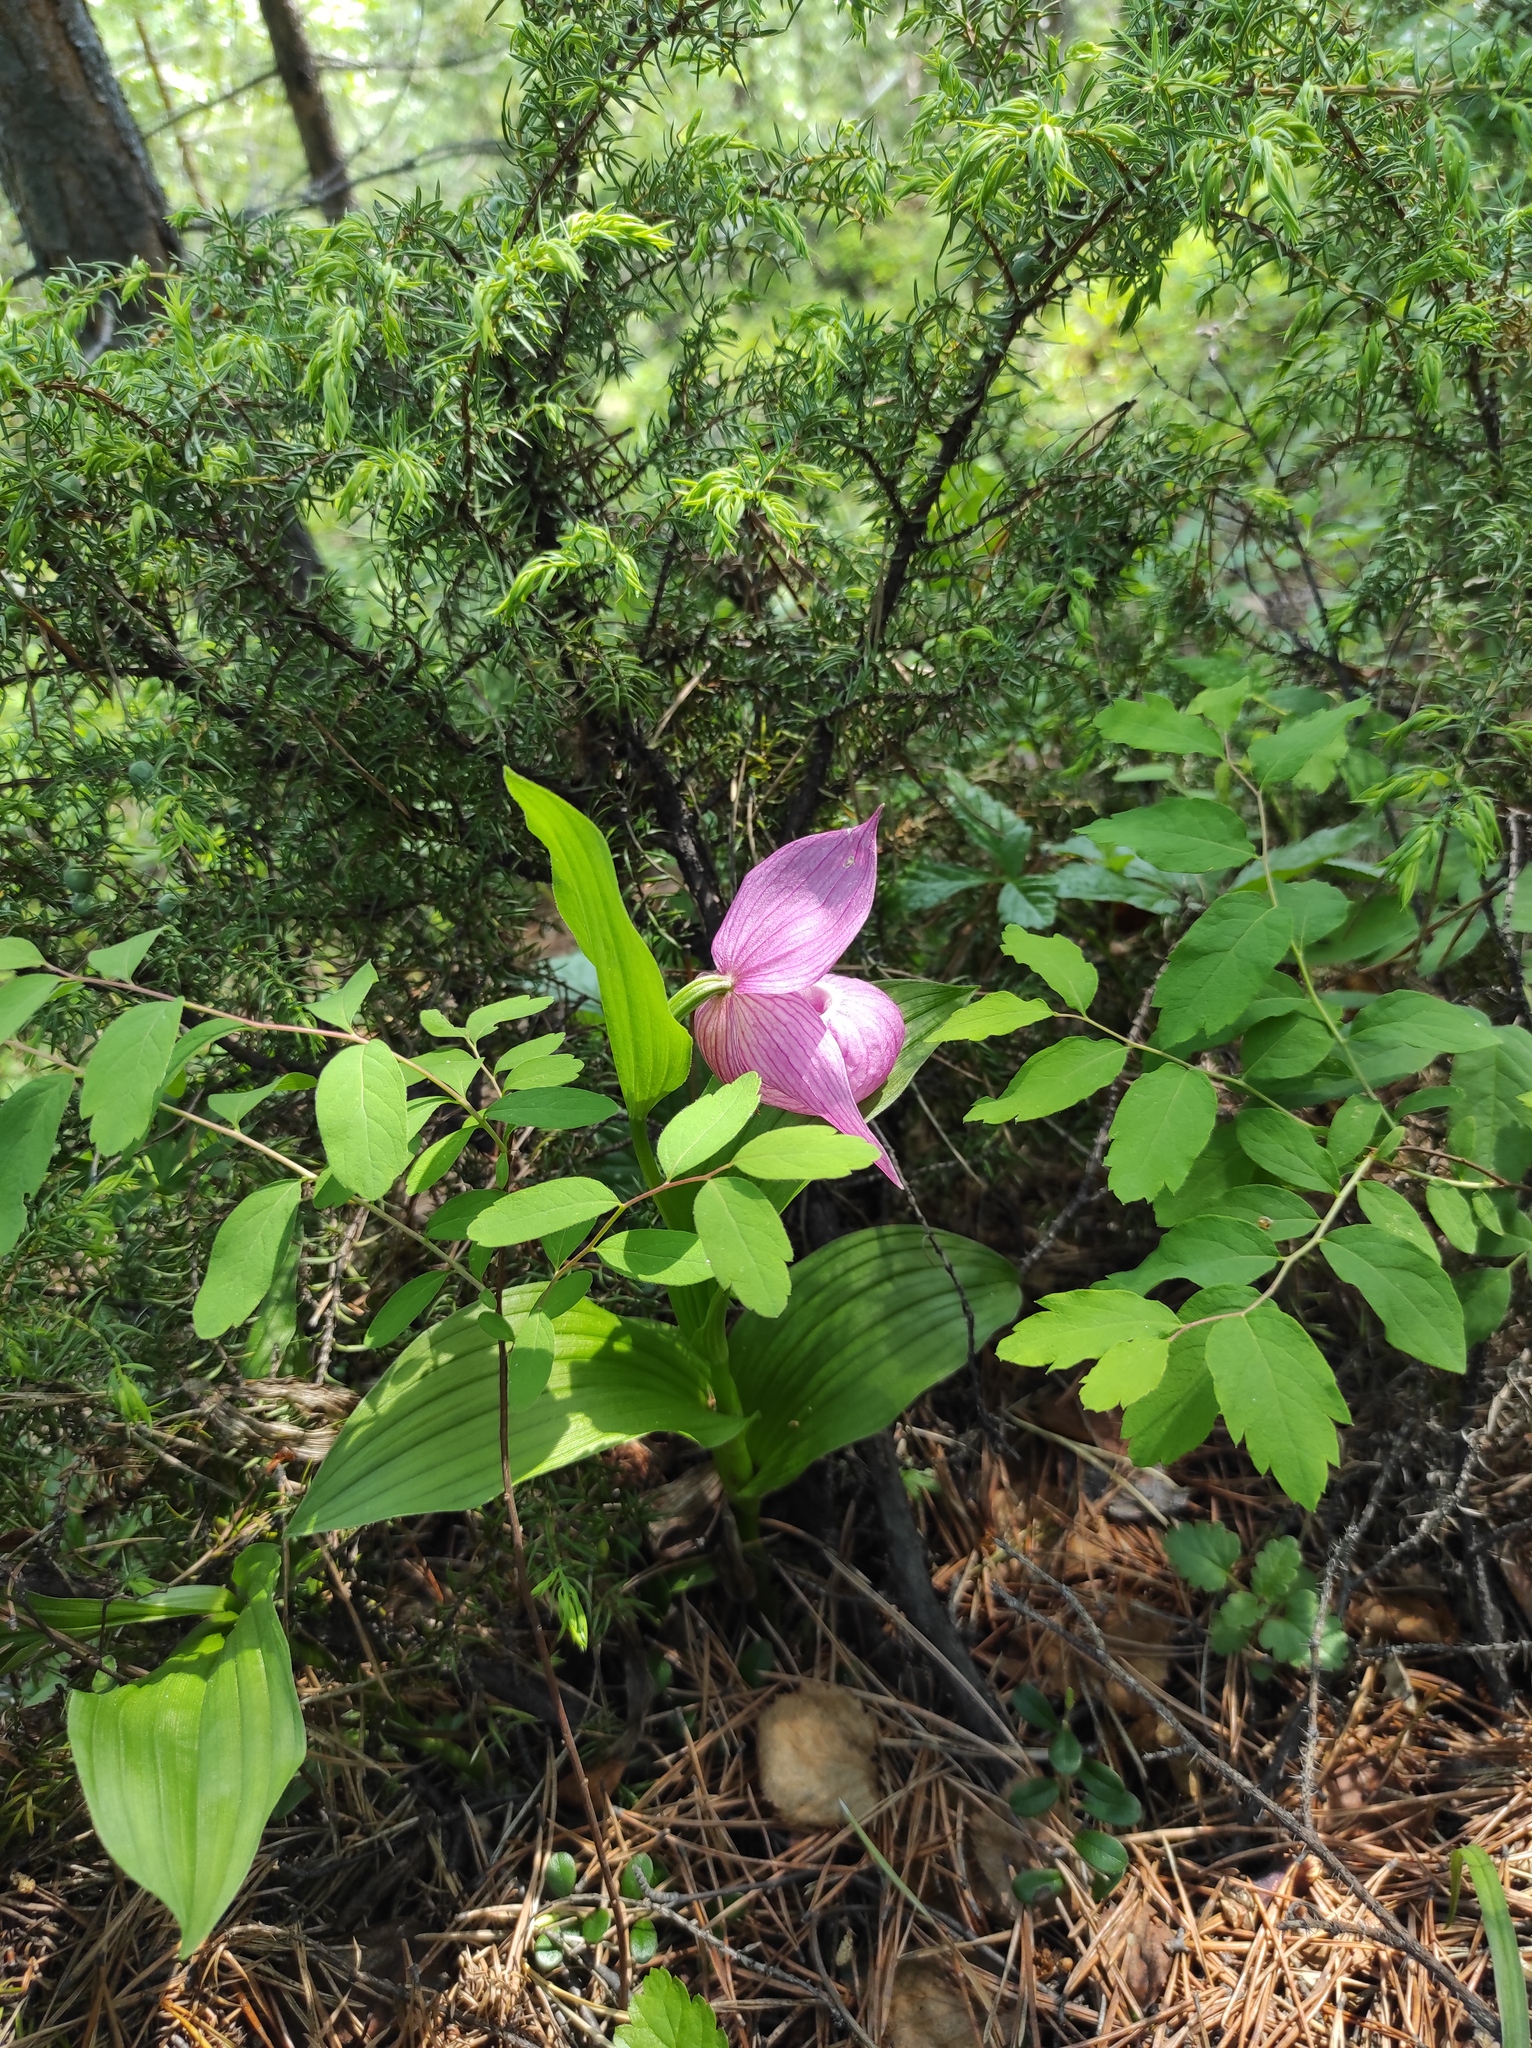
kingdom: Plantae
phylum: Tracheophyta
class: Liliopsida
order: Asparagales
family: Orchidaceae
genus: Cypripedium
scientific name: Cypripedium macranthos
